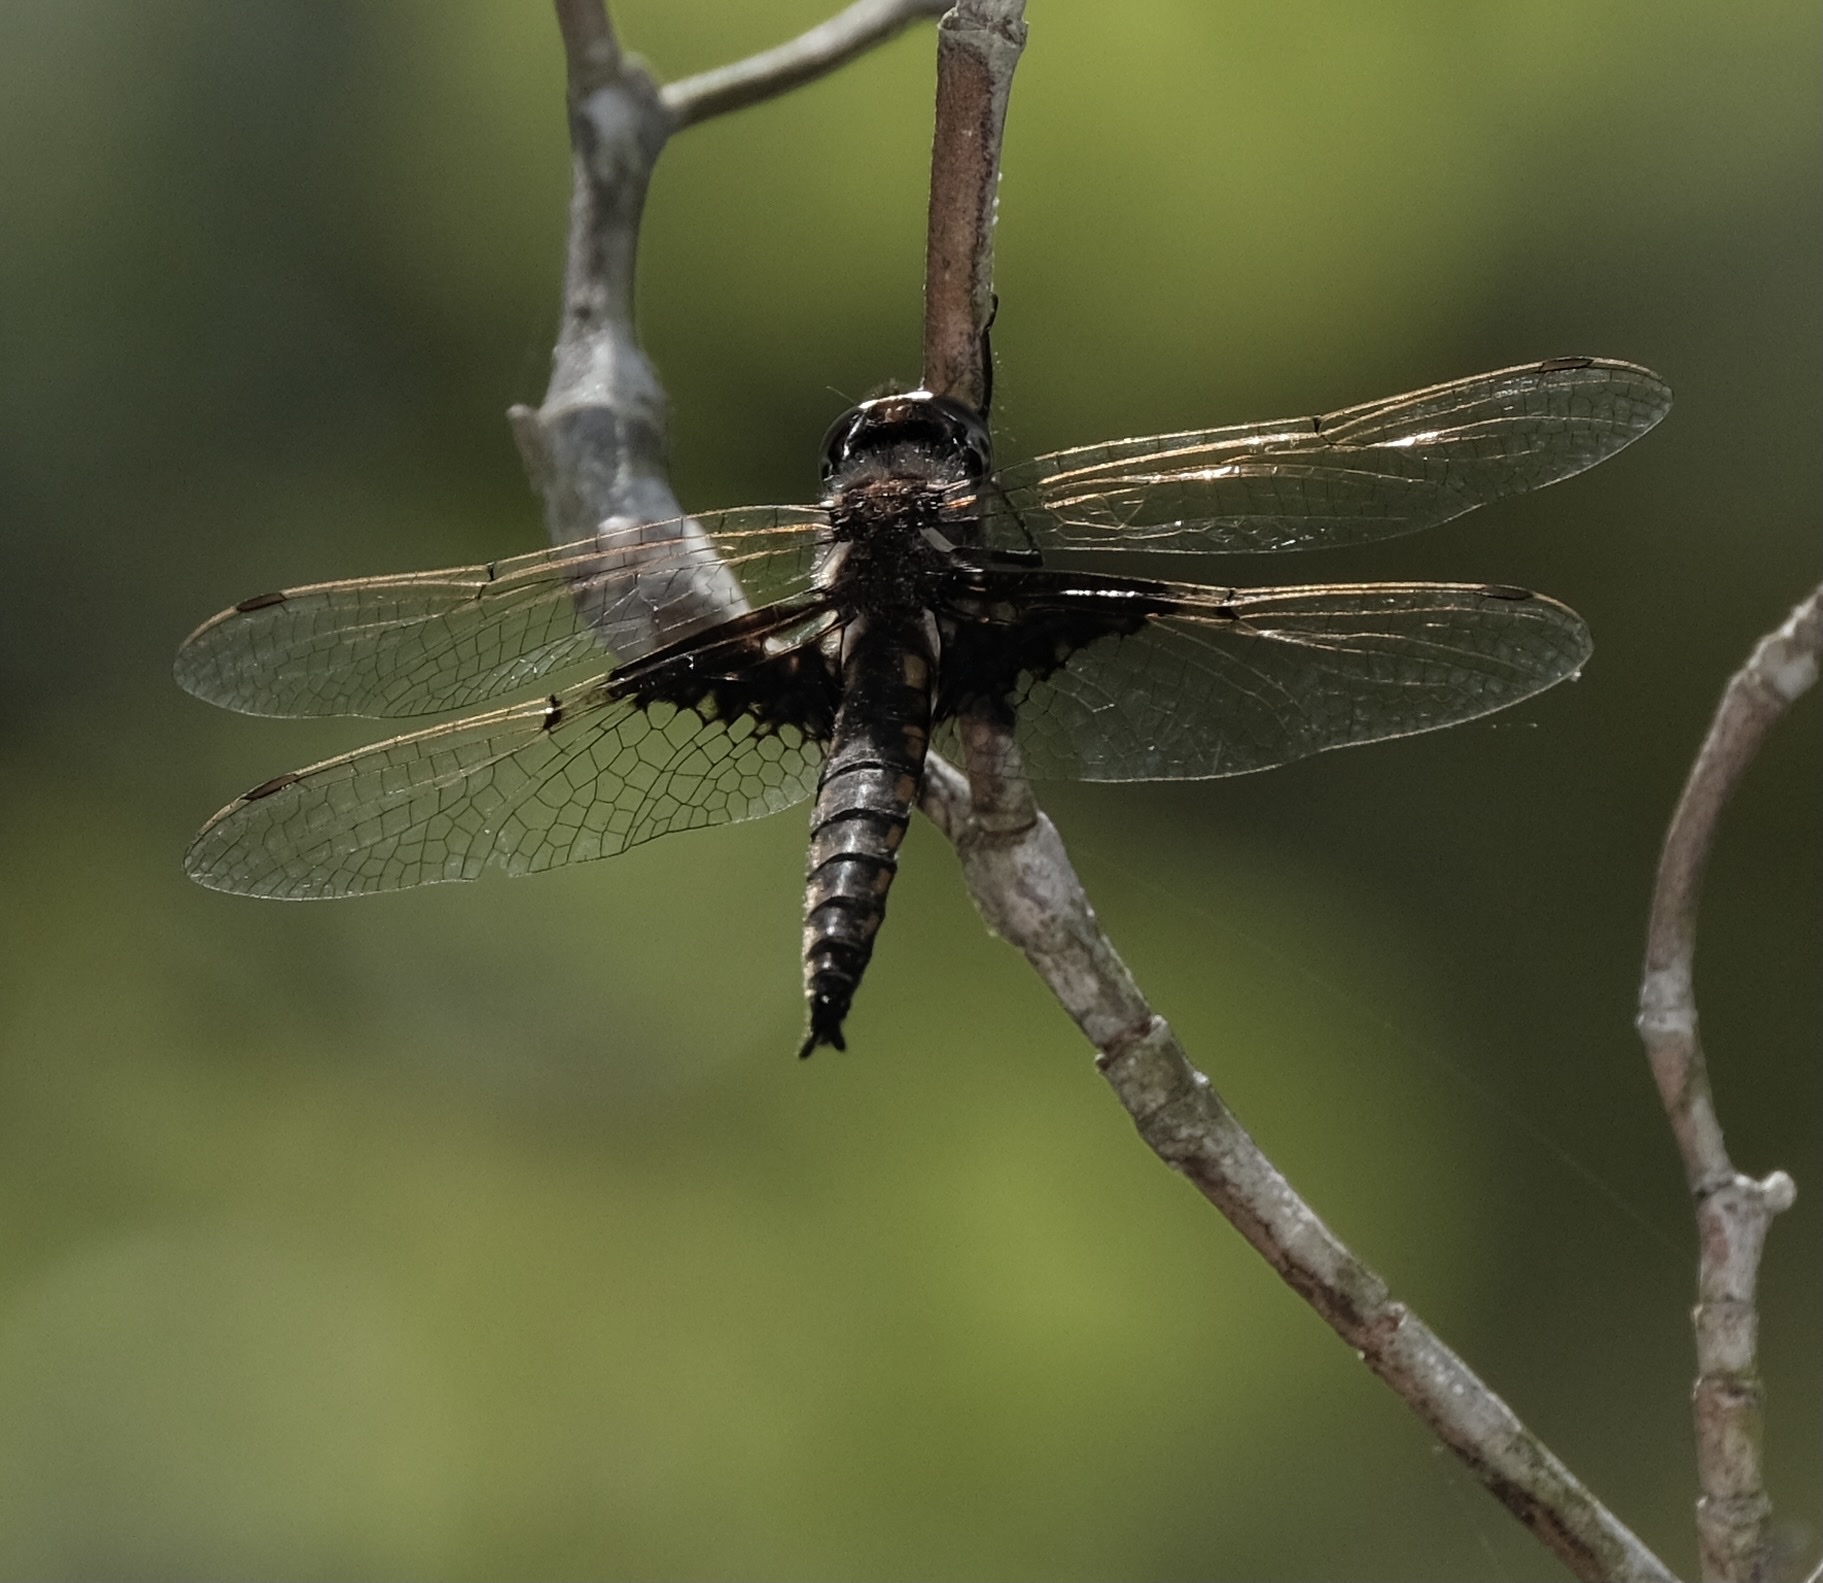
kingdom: Animalia
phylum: Arthropoda
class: Insecta
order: Odonata
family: Corduliidae
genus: Epitheca
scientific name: Epitheca semiaquea
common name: Mantled baskettail
